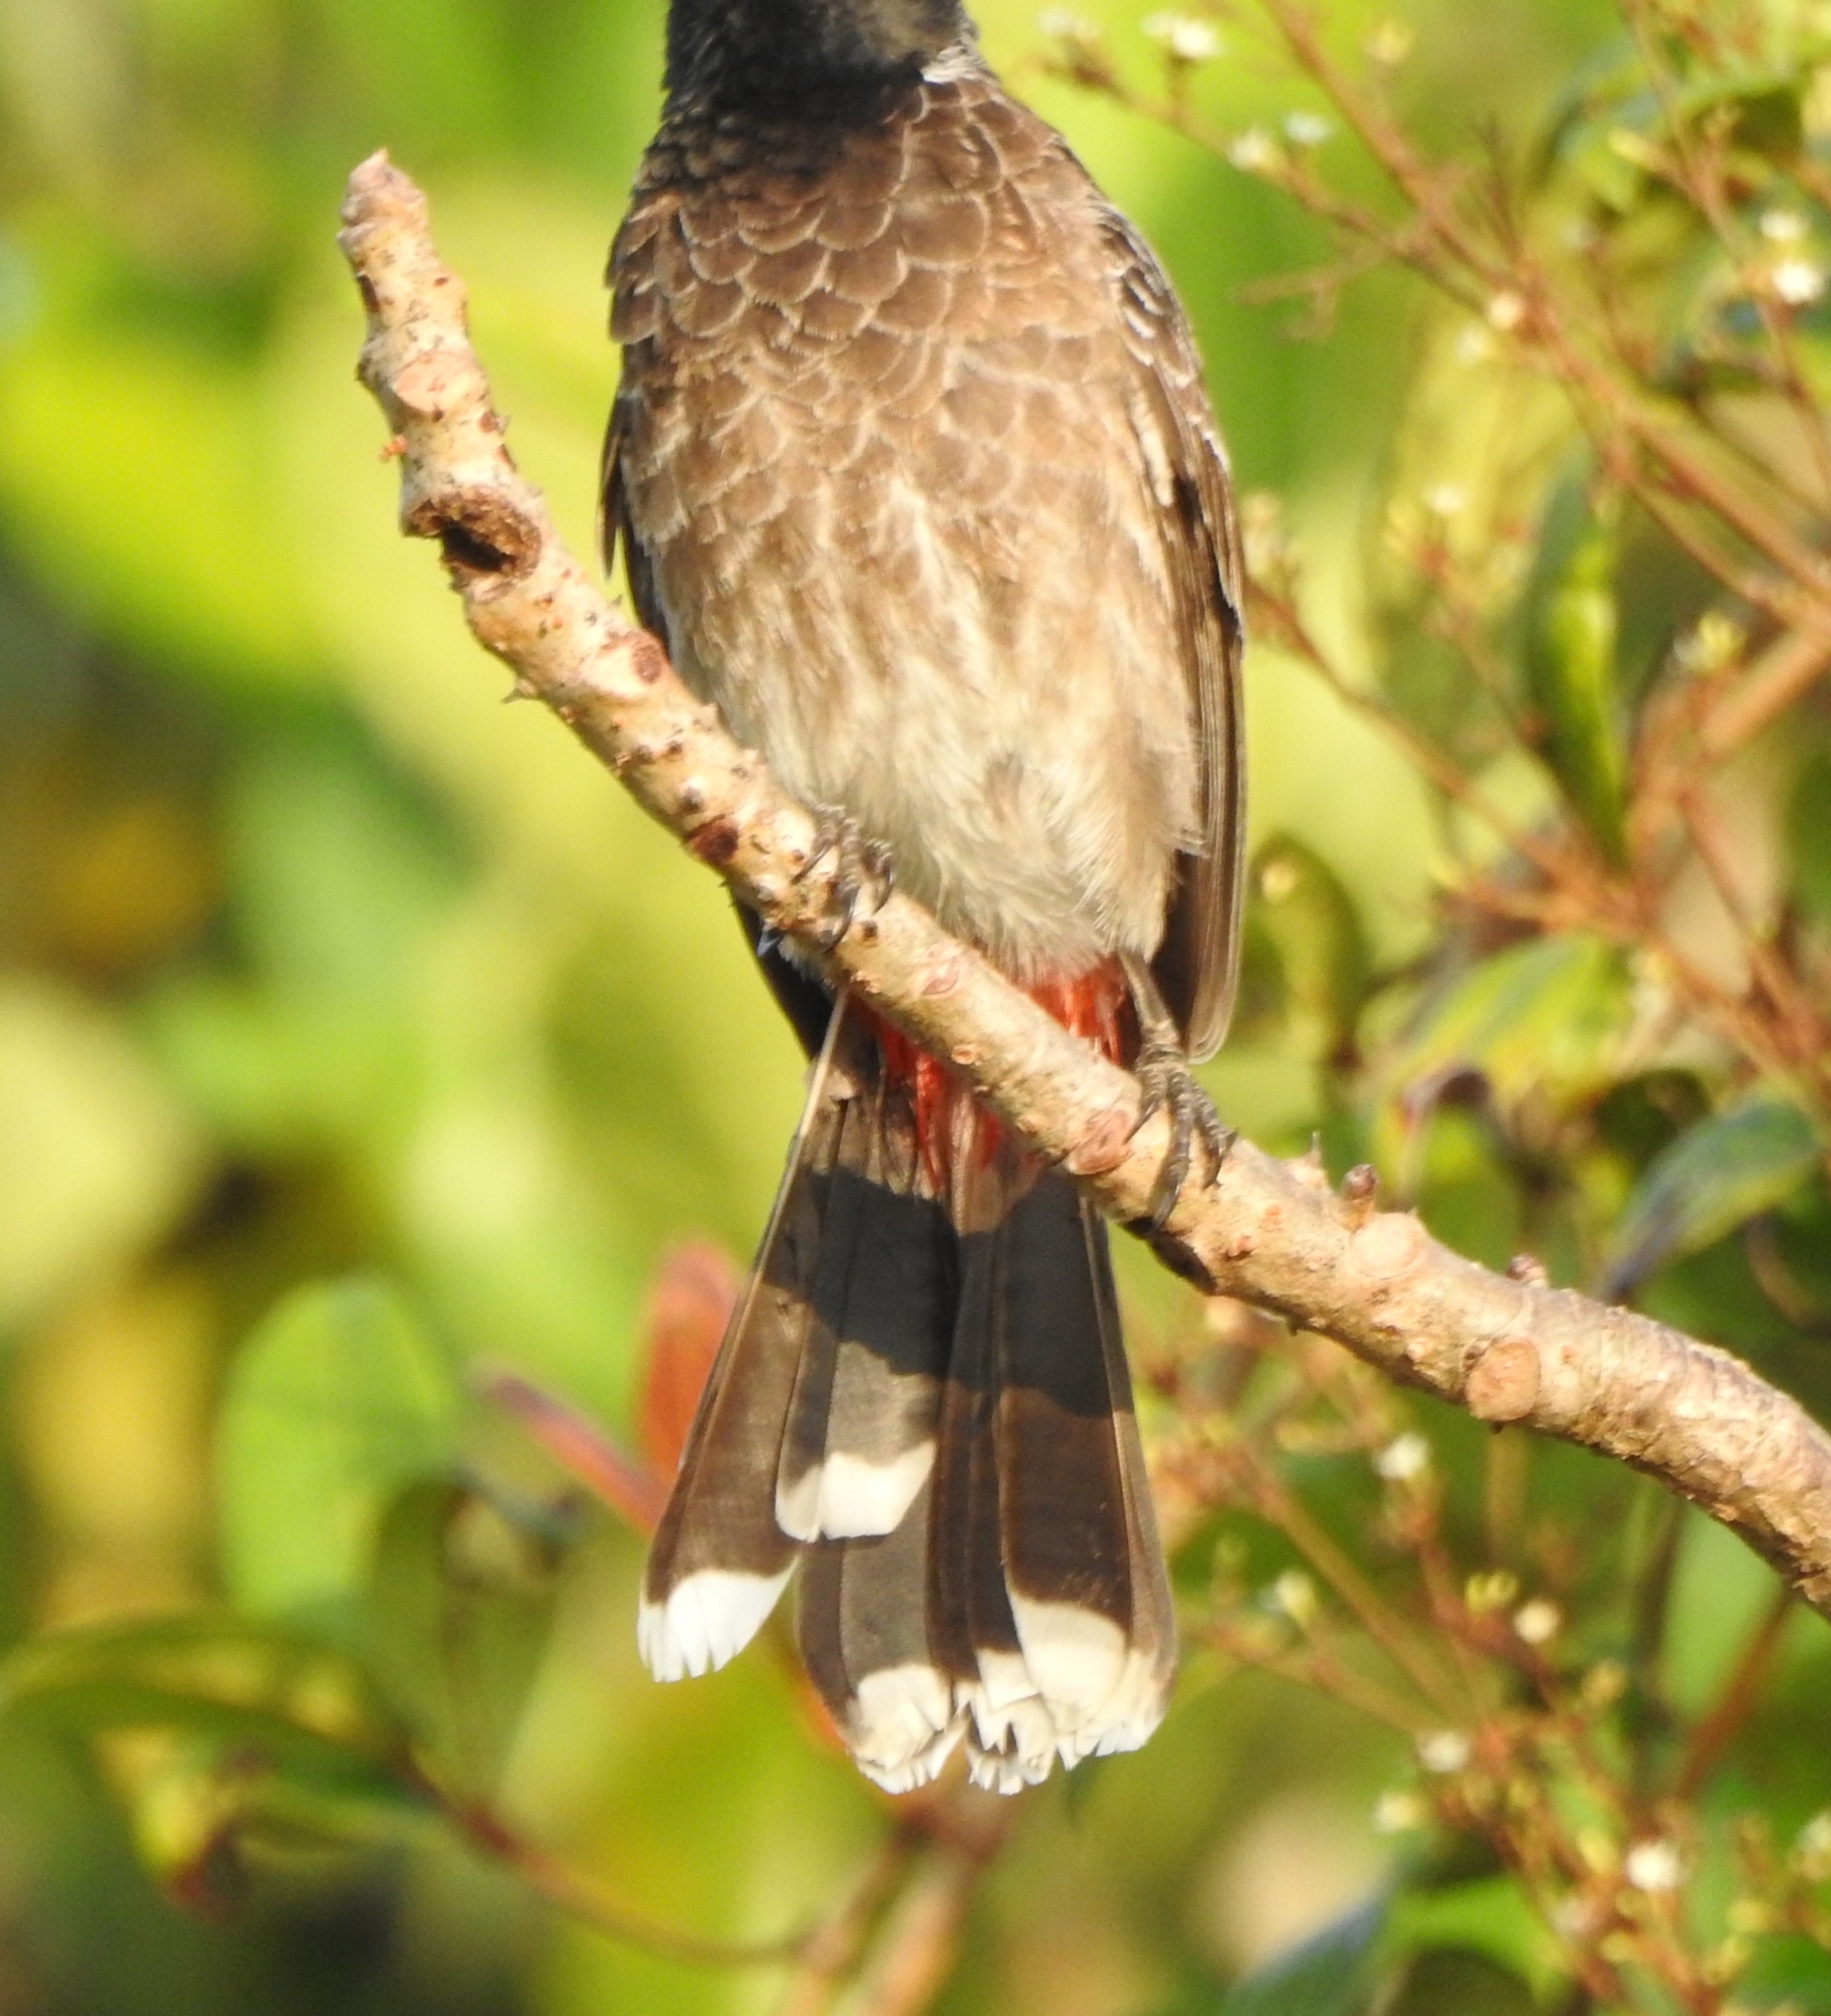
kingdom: Animalia
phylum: Chordata
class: Aves
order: Passeriformes
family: Pycnonotidae
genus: Pycnonotus
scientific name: Pycnonotus cafer
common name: Red-vented bulbul
